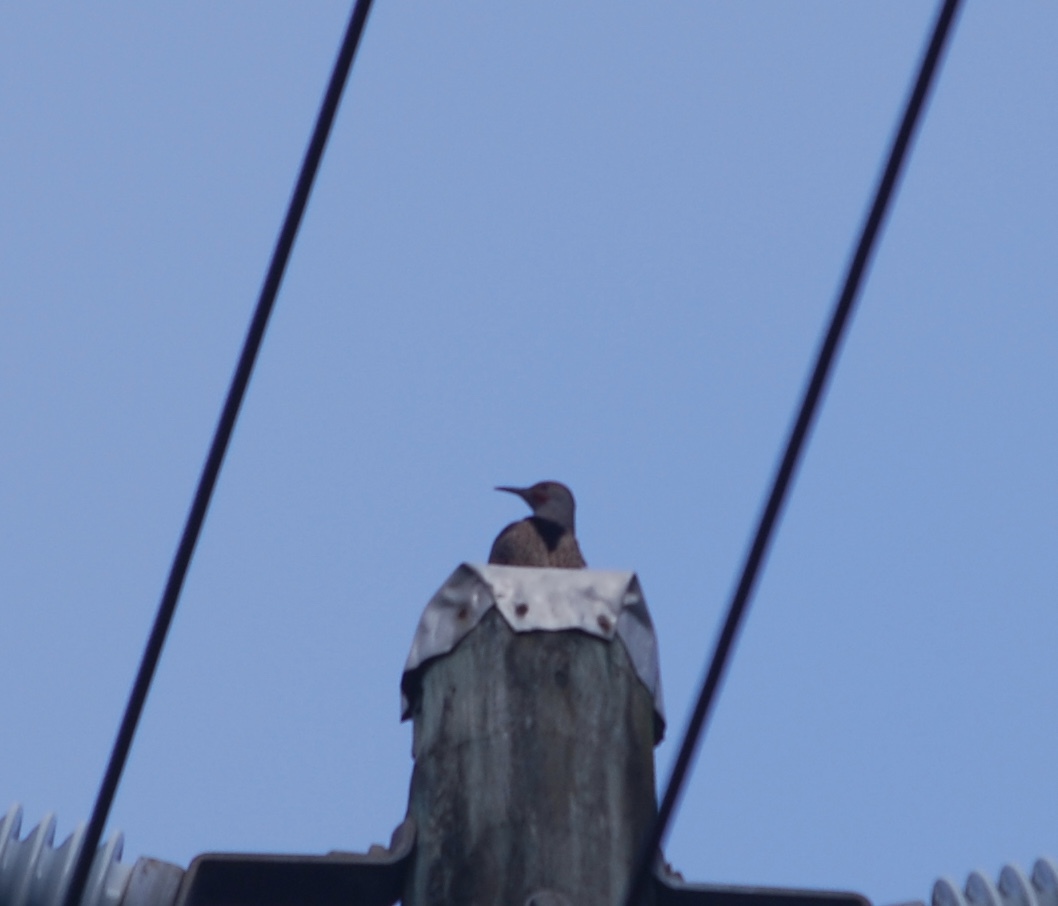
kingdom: Animalia
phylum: Chordata
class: Aves
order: Piciformes
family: Picidae
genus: Colaptes
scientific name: Colaptes auratus
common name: Northern flicker
